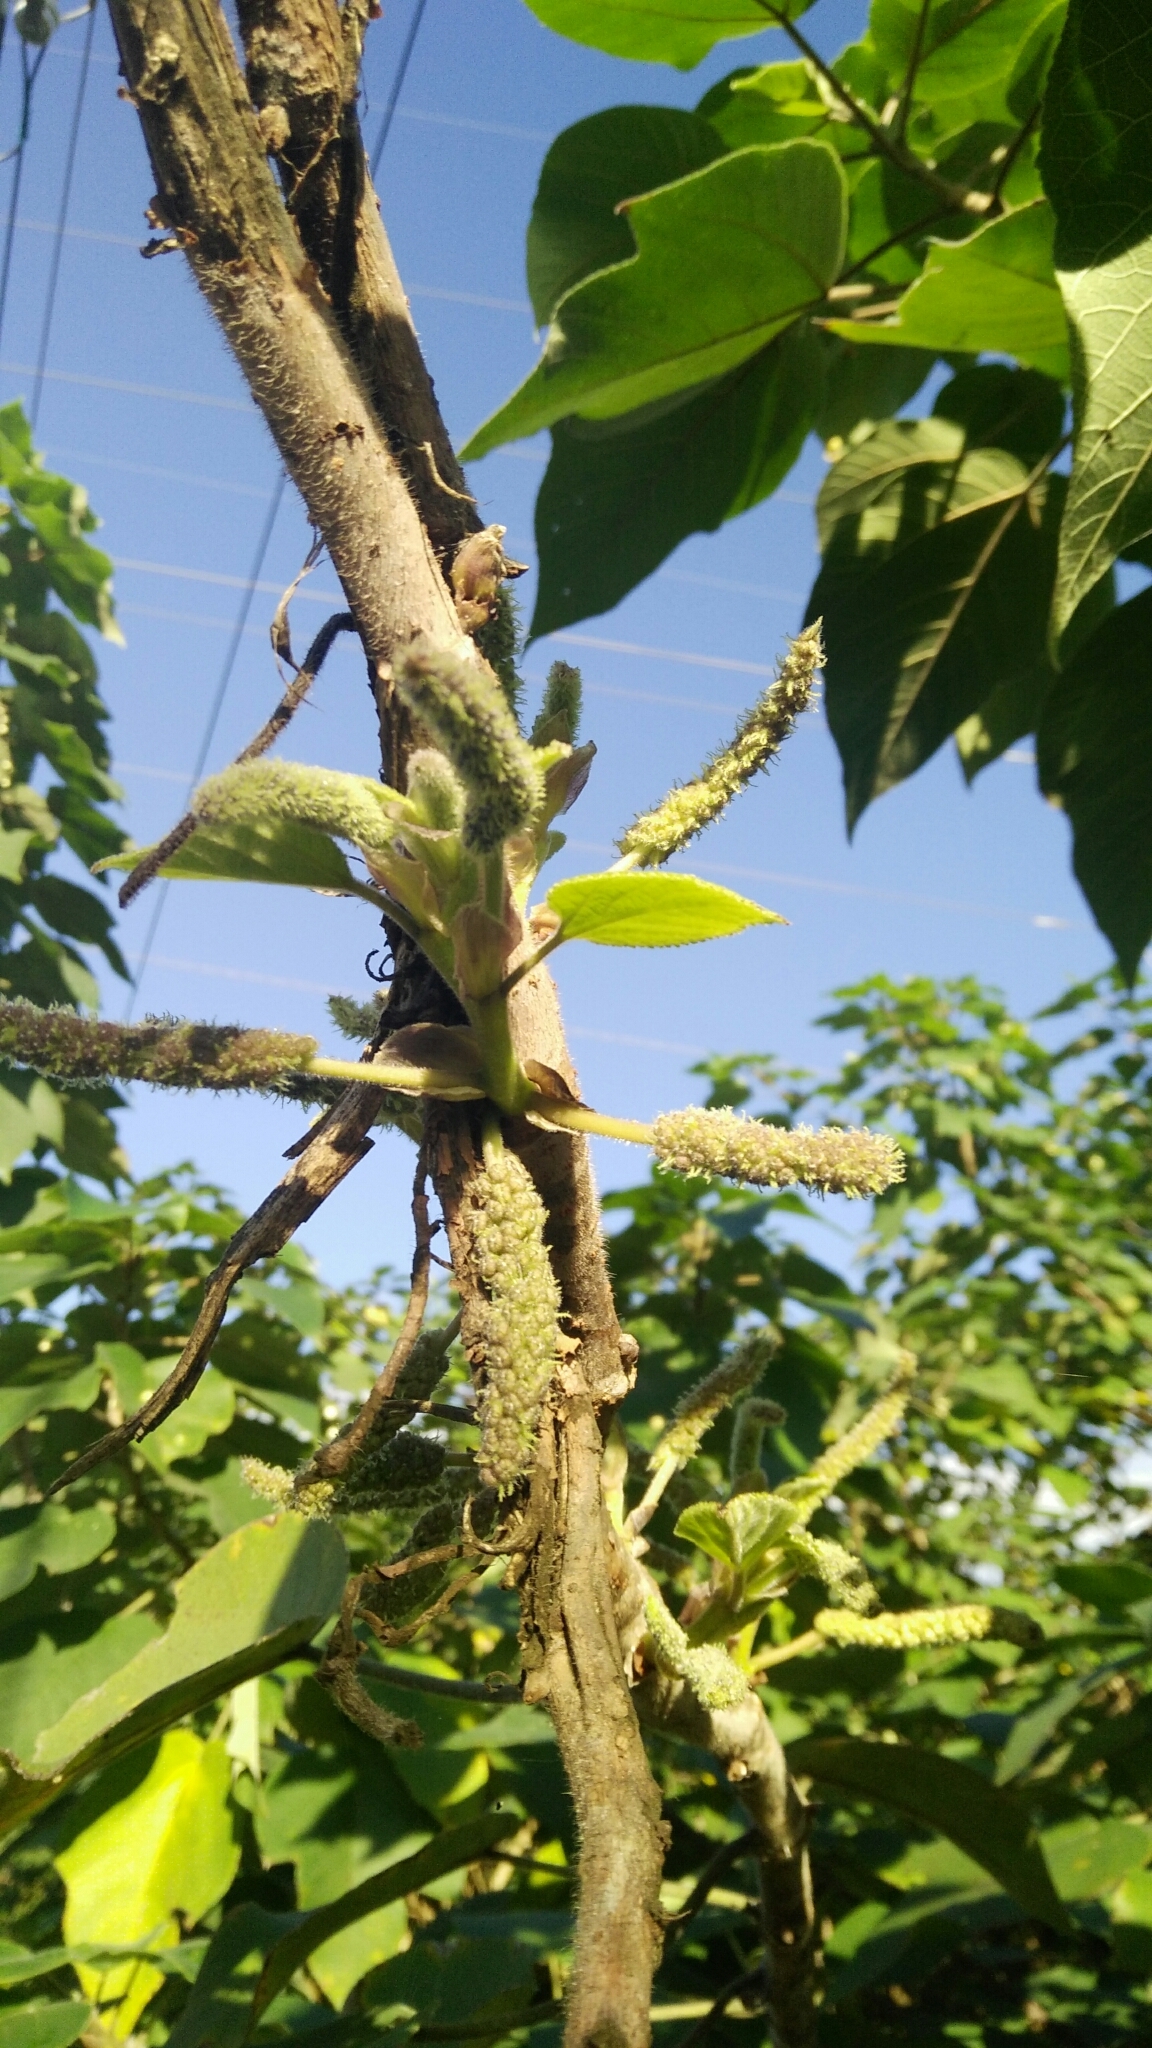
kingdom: Plantae
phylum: Tracheophyta
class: Magnoliopsida
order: Rosales
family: Moraceae
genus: Broussonetia
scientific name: Broussonetia papyrifera
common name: Paper mulberry
